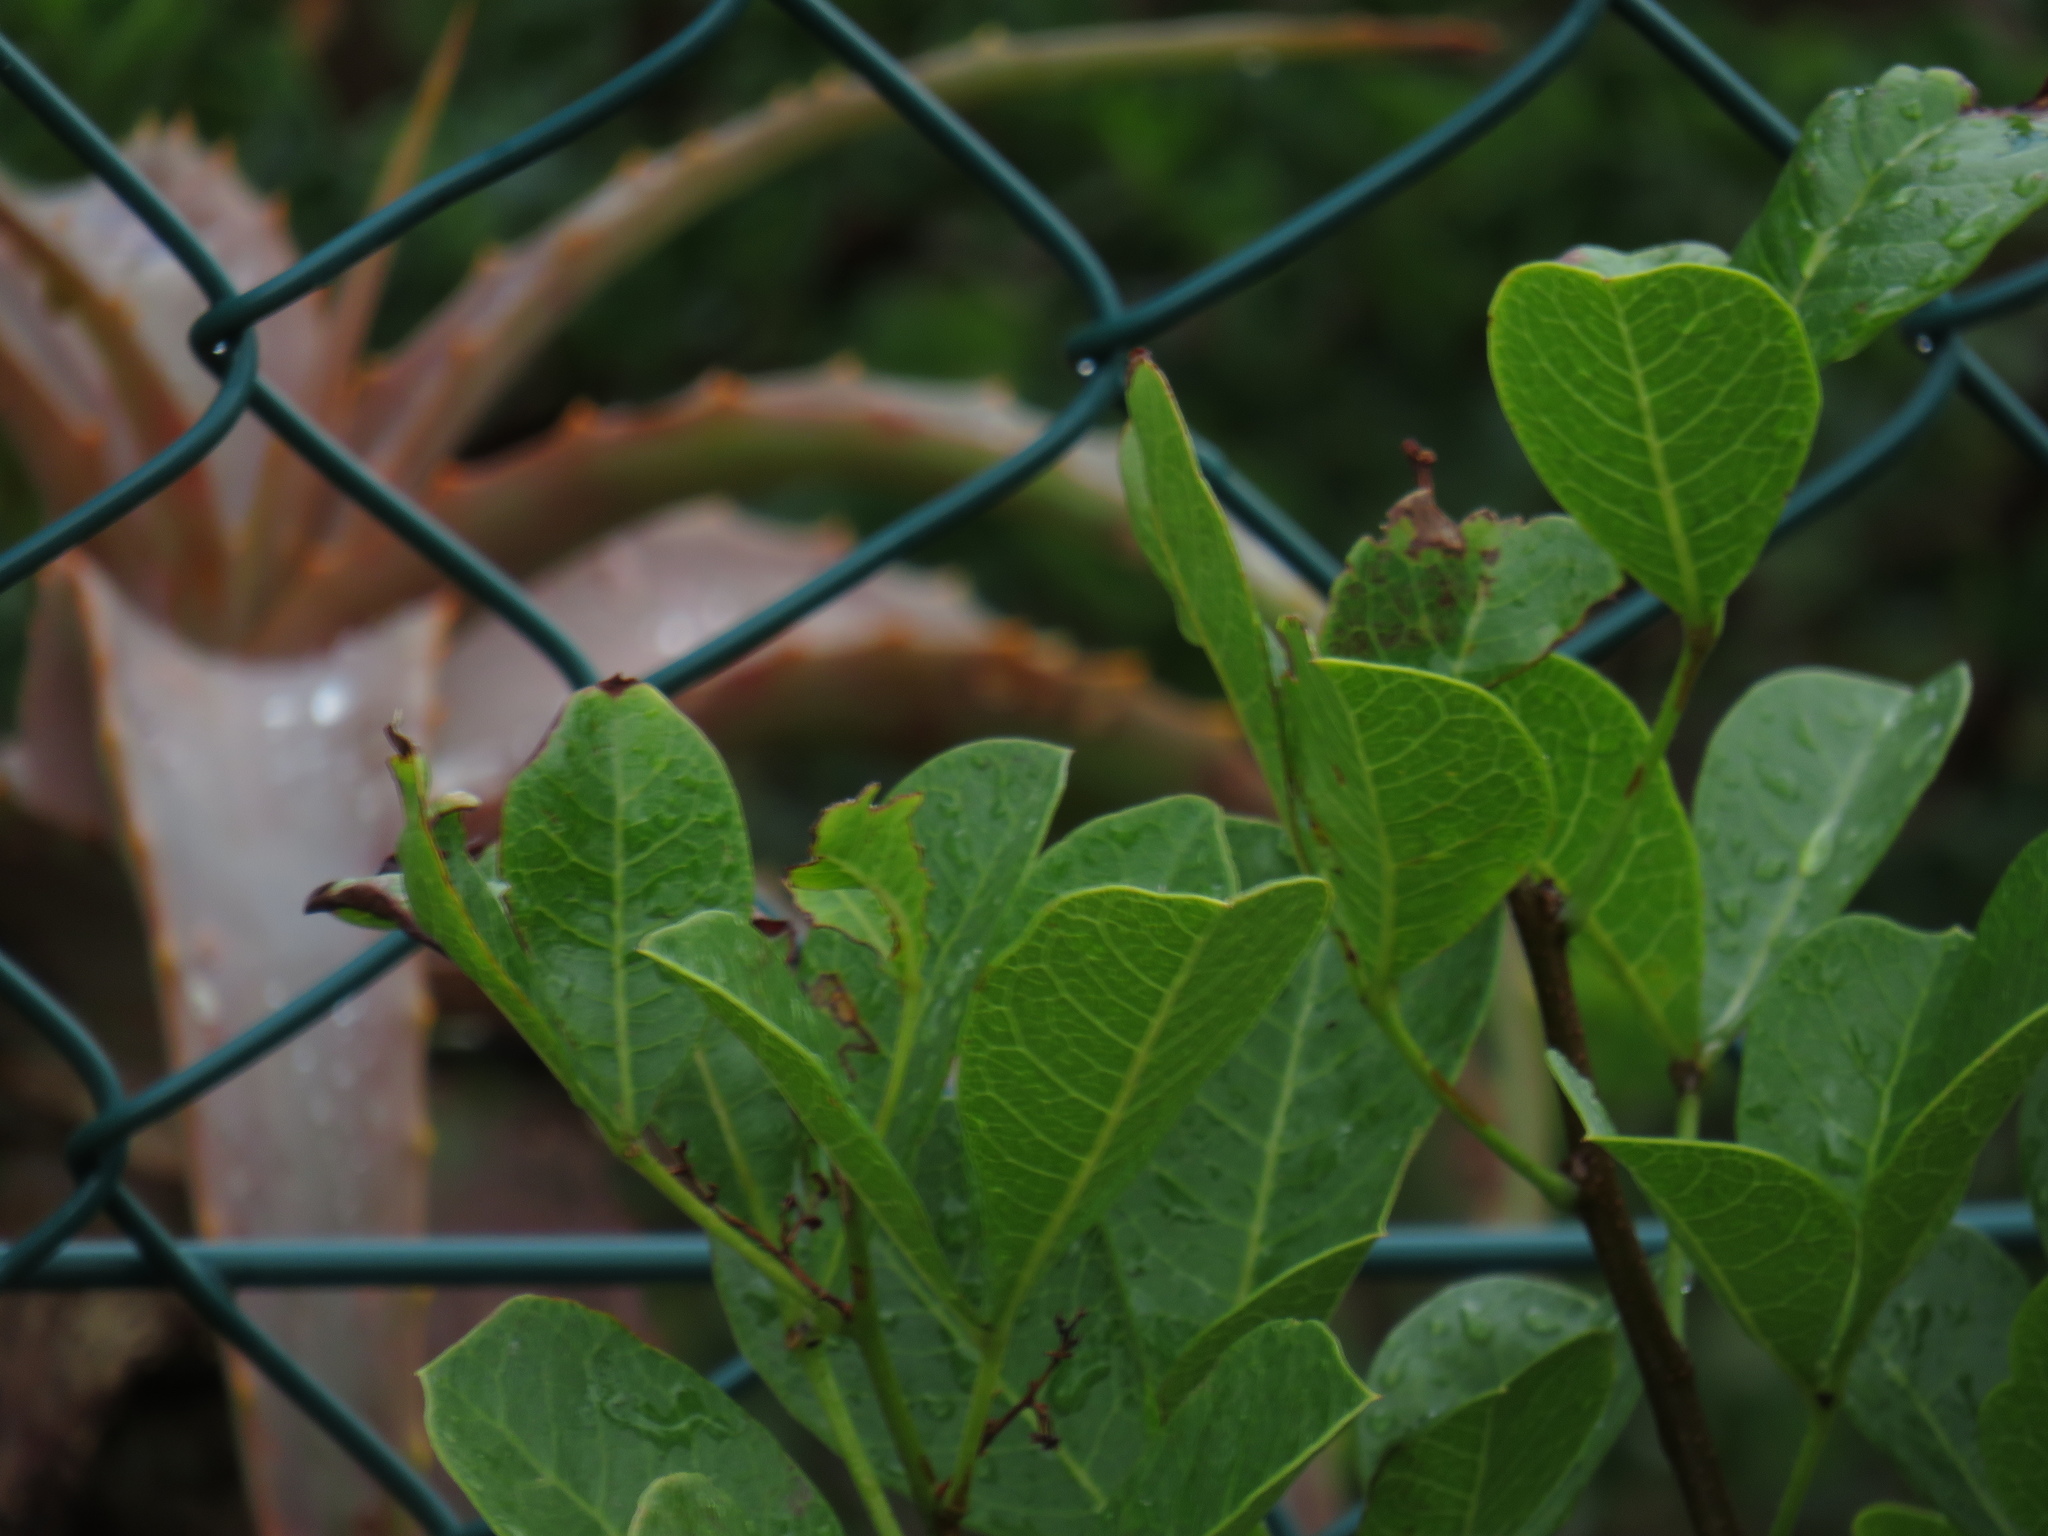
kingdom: Plantae
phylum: Tracheophyta
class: Magnoliopsida
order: Sapindales
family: Anacardiaceae
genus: Searsia
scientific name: Searsia laevigata
